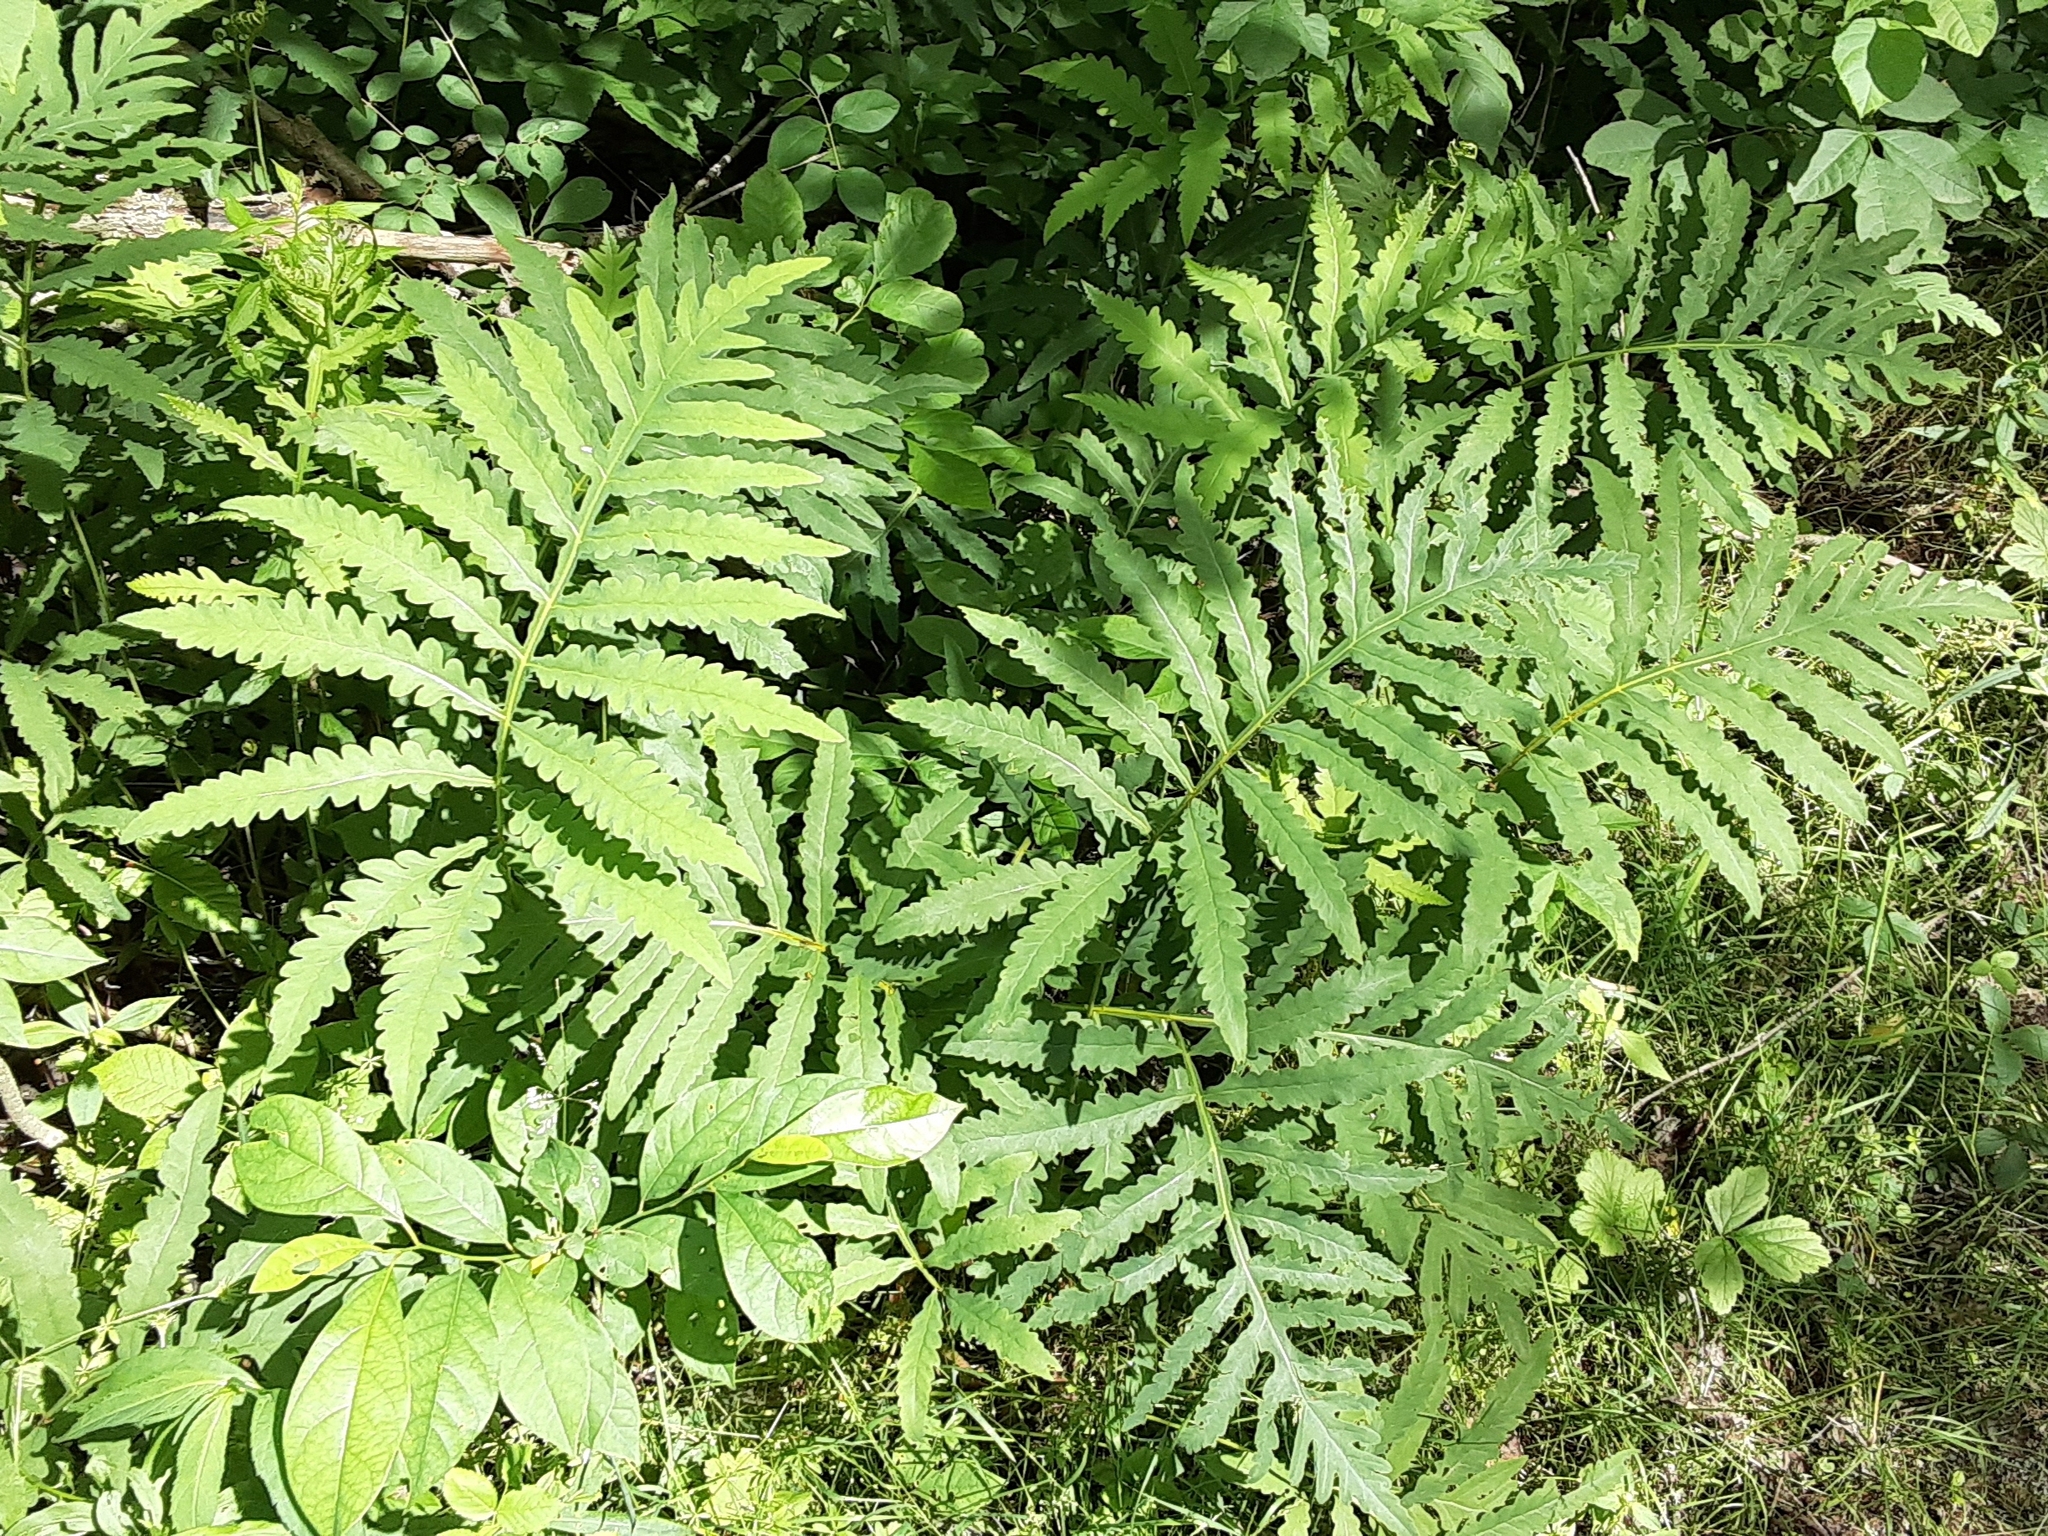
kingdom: Plantae
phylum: Tracheophyta
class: Polypodiopsida
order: Polypodiales
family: Onocleaceae
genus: Onoclea
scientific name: Onoclea sensibilis
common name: Sensitive fern
